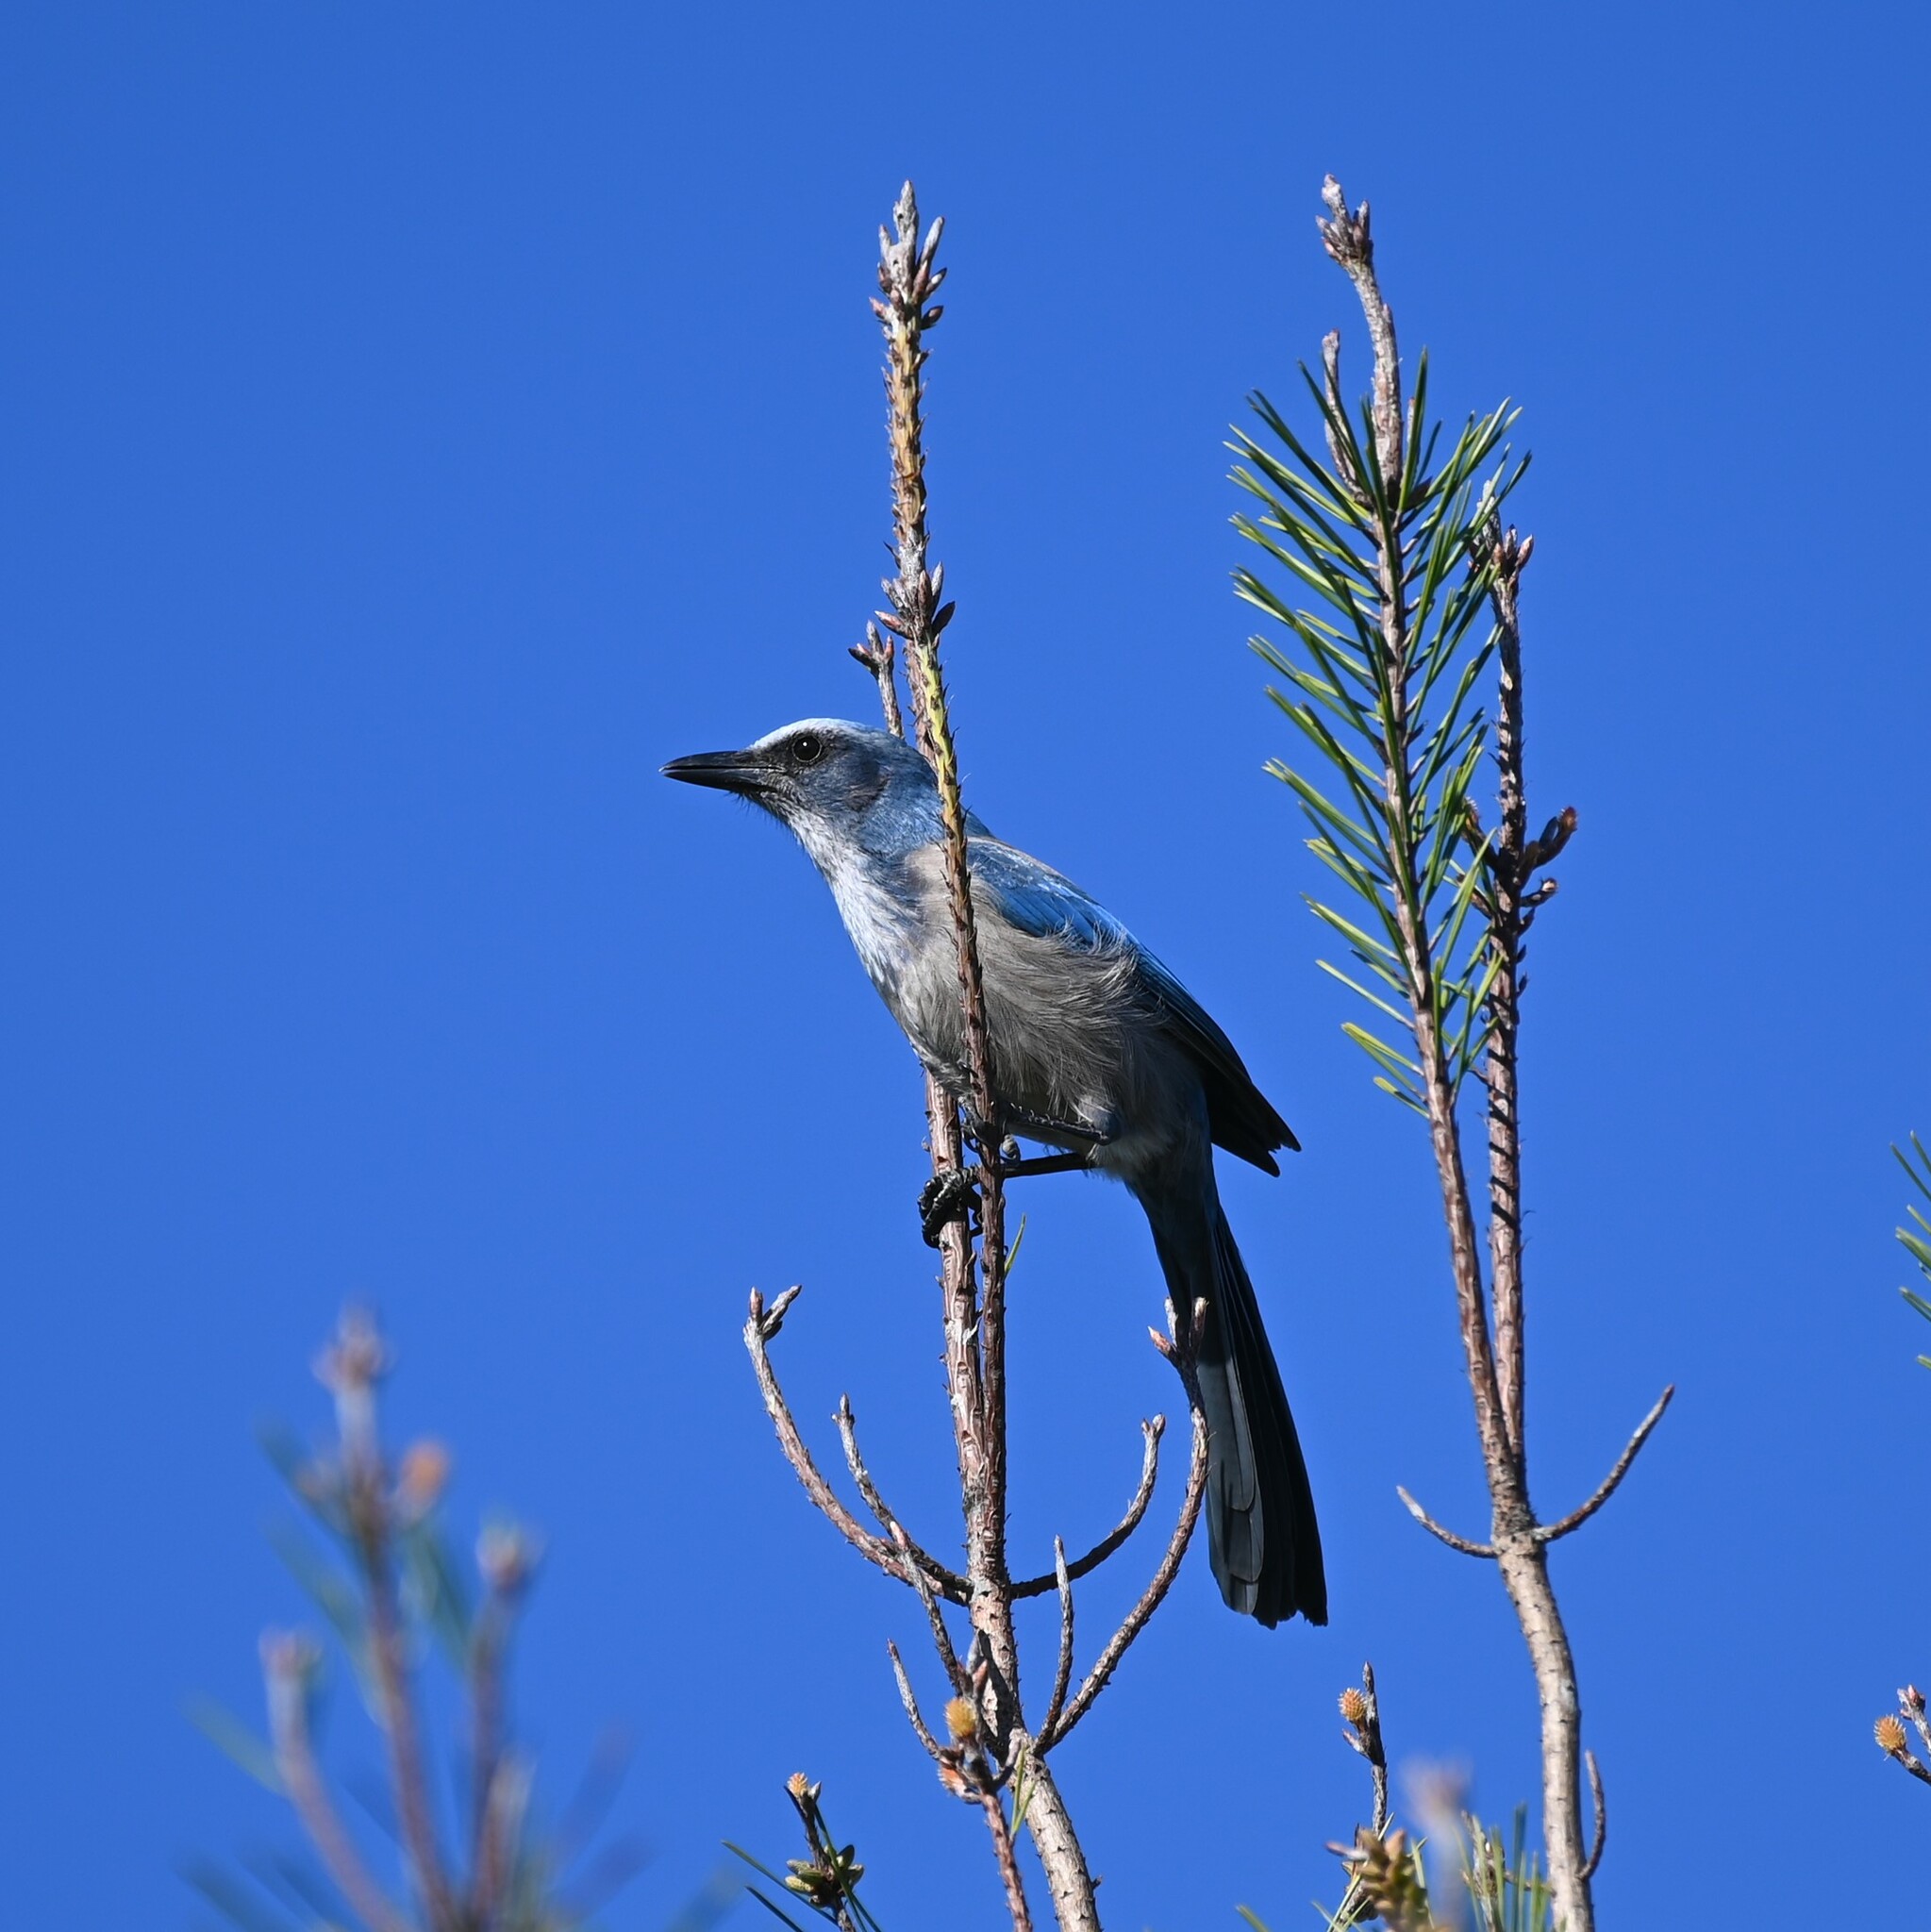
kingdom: Animalia
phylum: Chordata
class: Aves
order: Passeriformes
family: Corvidae
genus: Aphelocoma
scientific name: Aphelocoma coerulescens
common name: Florida scrub jay
